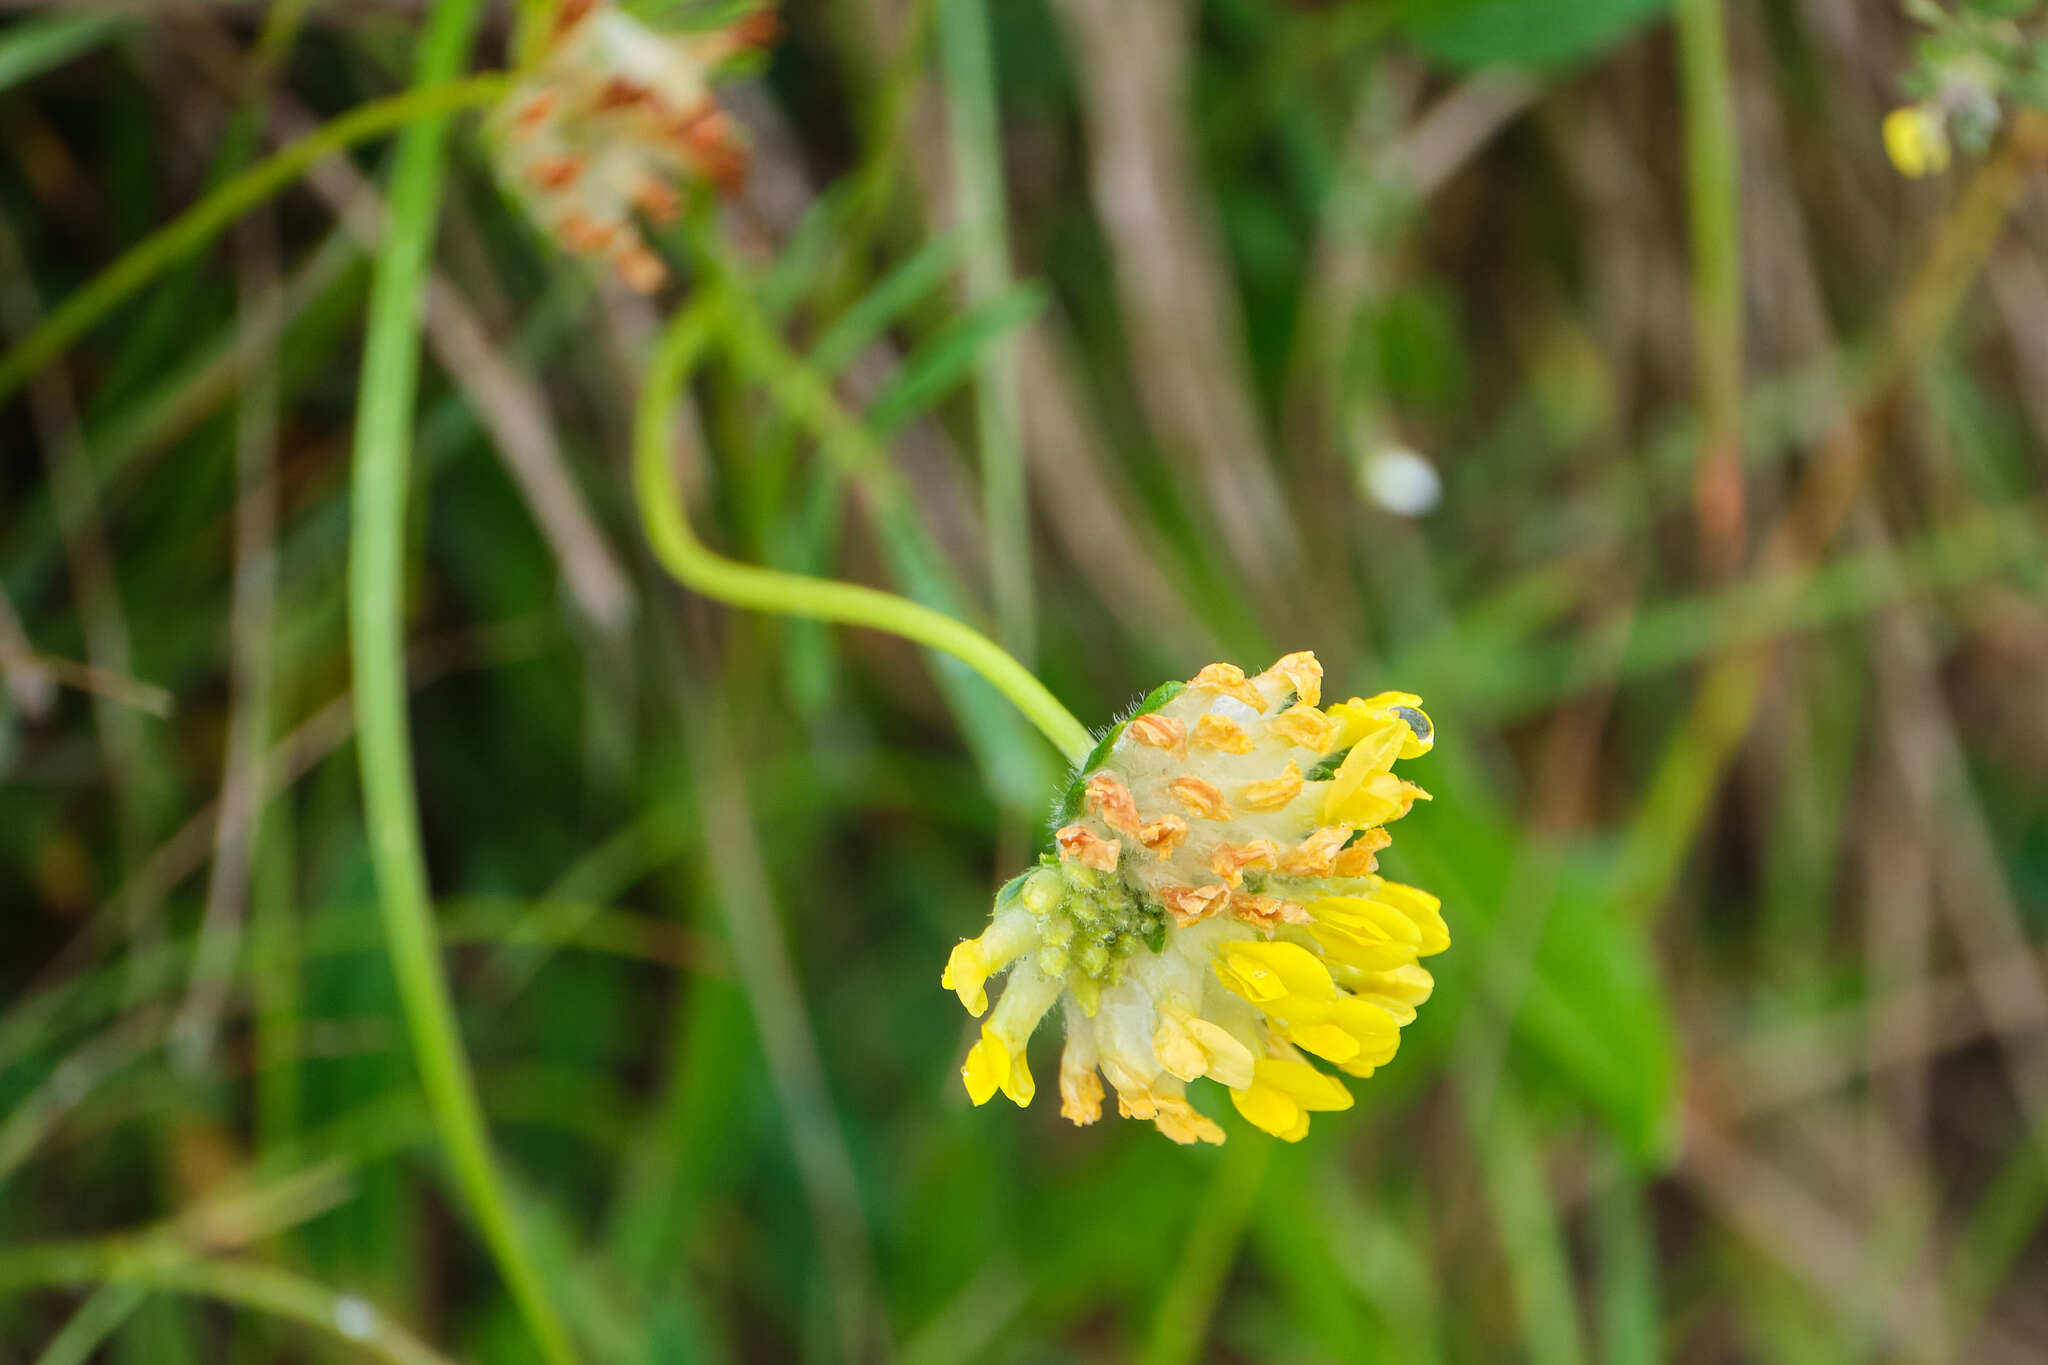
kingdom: Plantae
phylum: Tracheophyta
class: Magnoliopsida
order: Fabales
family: Fabaceae
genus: Anthyllis
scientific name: Anthyllis vulneraria
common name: Kidney vetch
